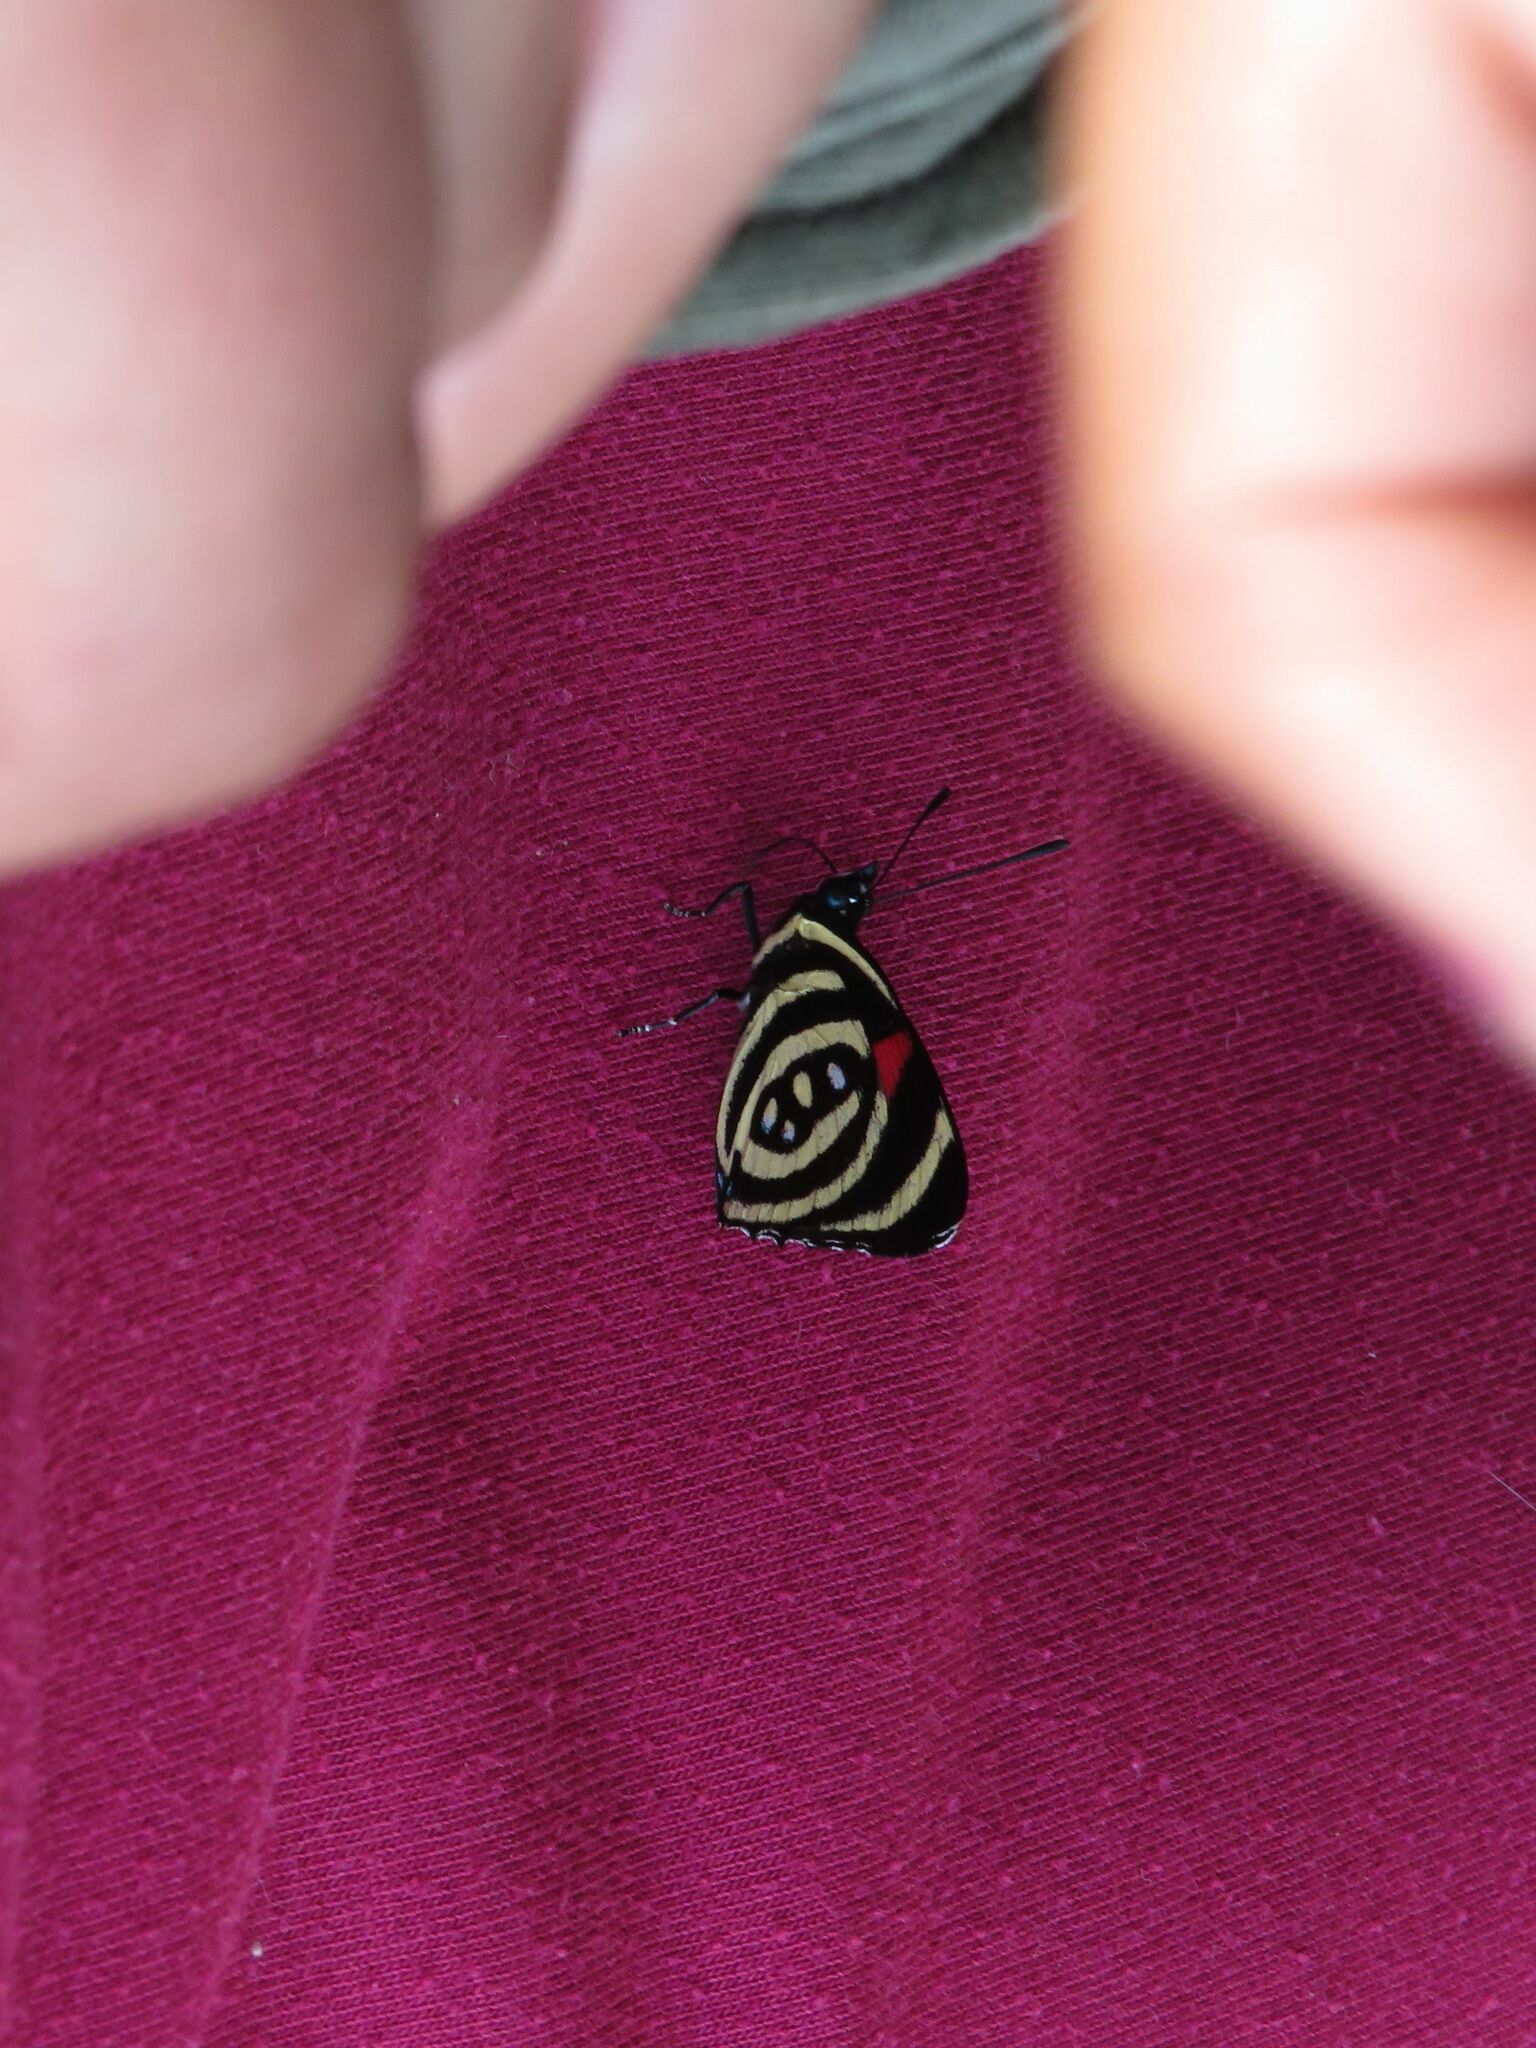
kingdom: Animalia
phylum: Arthropoda
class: Insecta
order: Lepidoptera
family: Nymphalidae
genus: Catagramma
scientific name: Catagramma Callicore hydaspes
